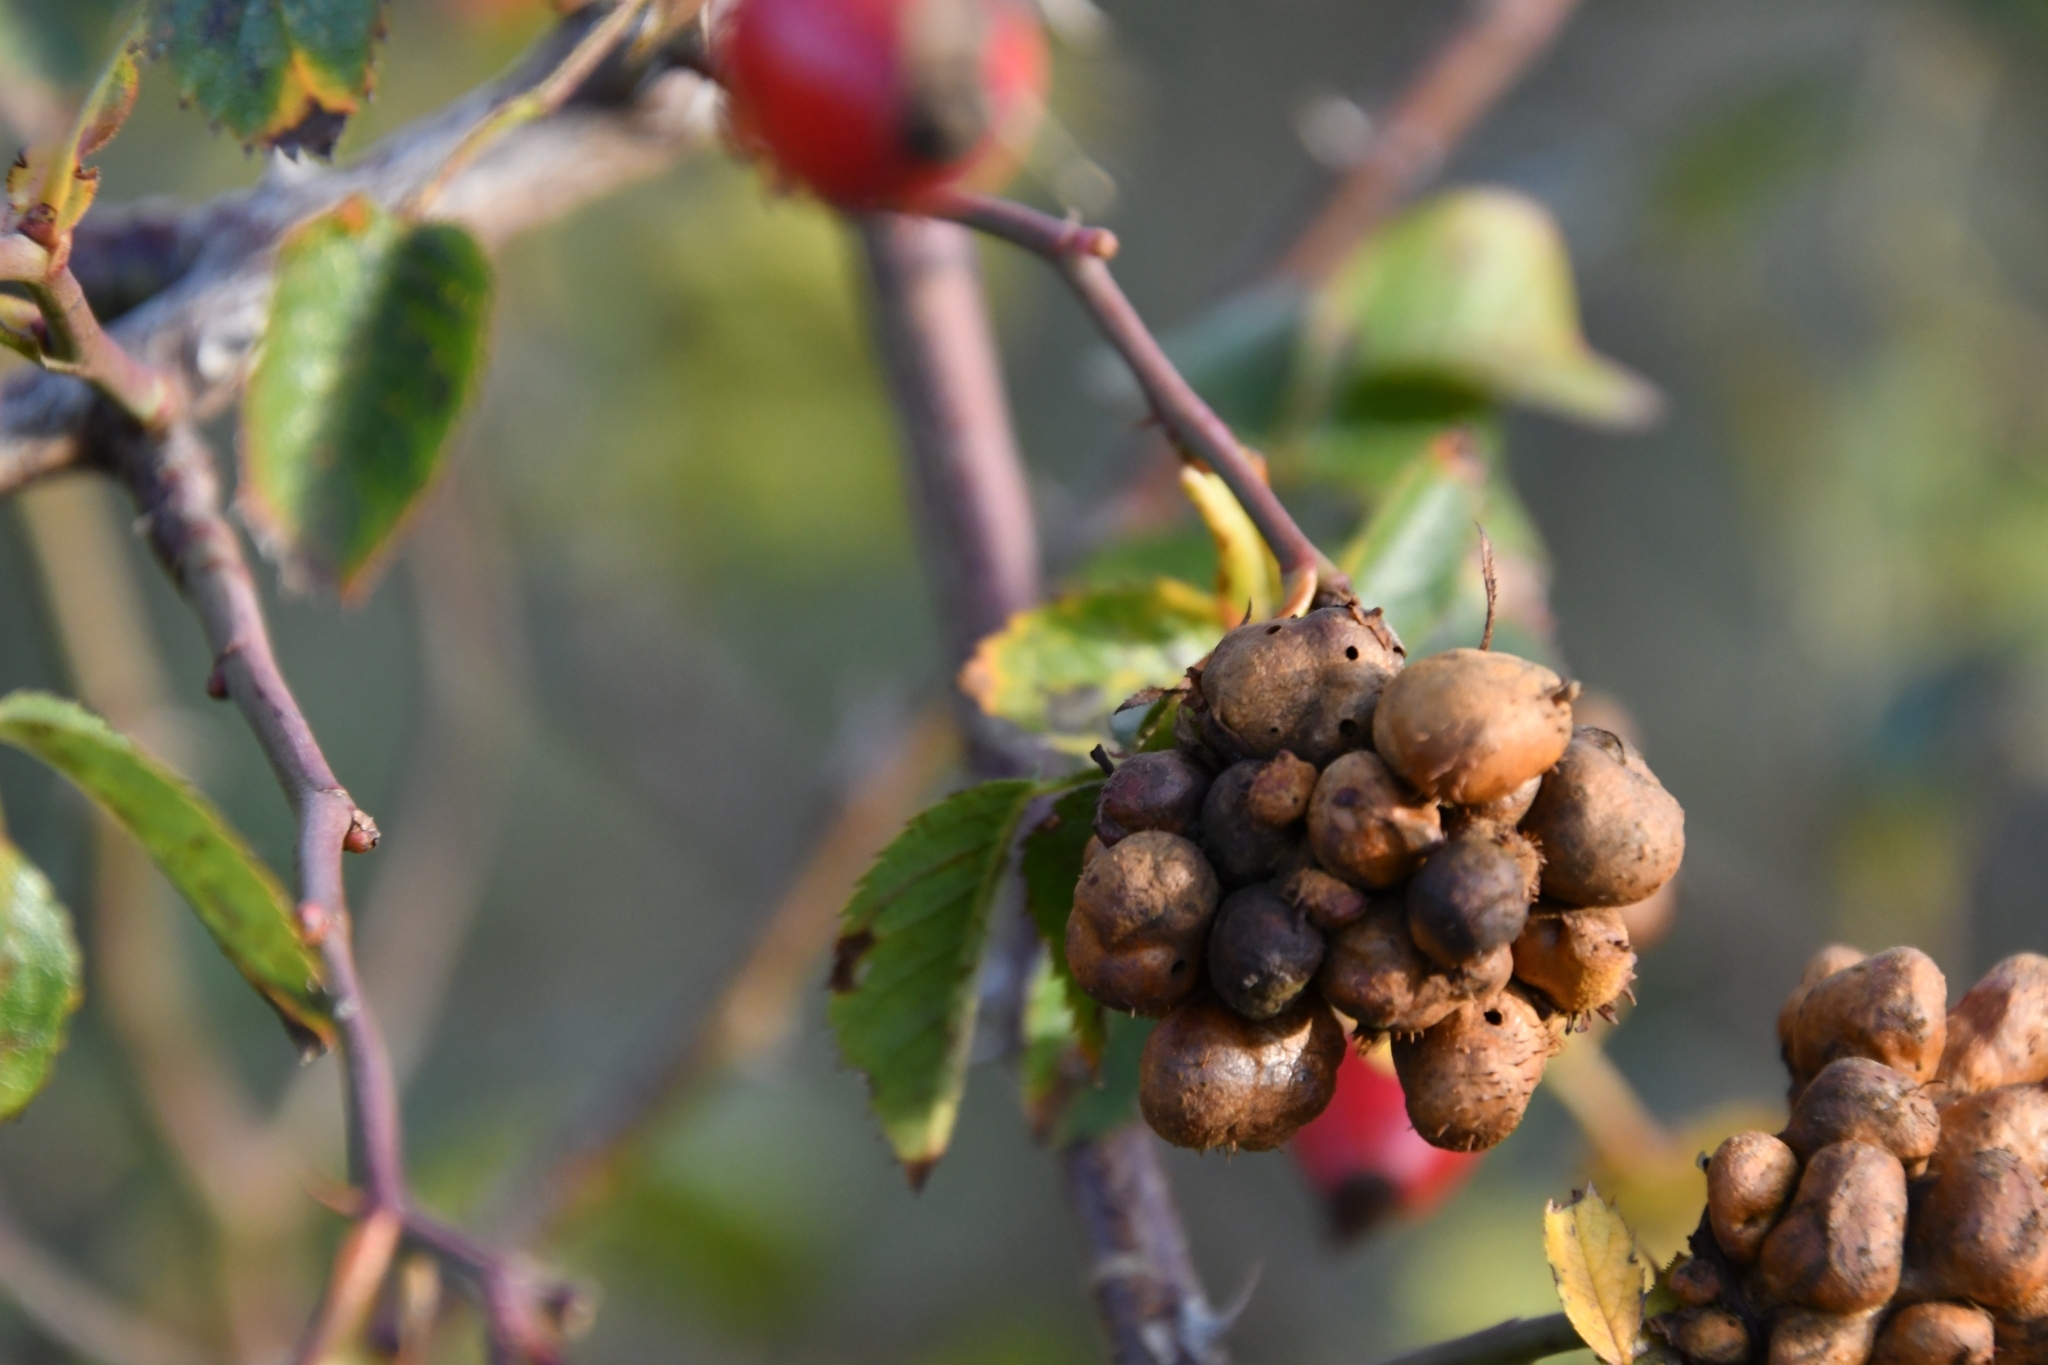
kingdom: Animalia
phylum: Arthropoda
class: Insecta
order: Hymenoptera
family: Cynipidae
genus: Diplolepis
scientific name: Diplolepis fructuum
